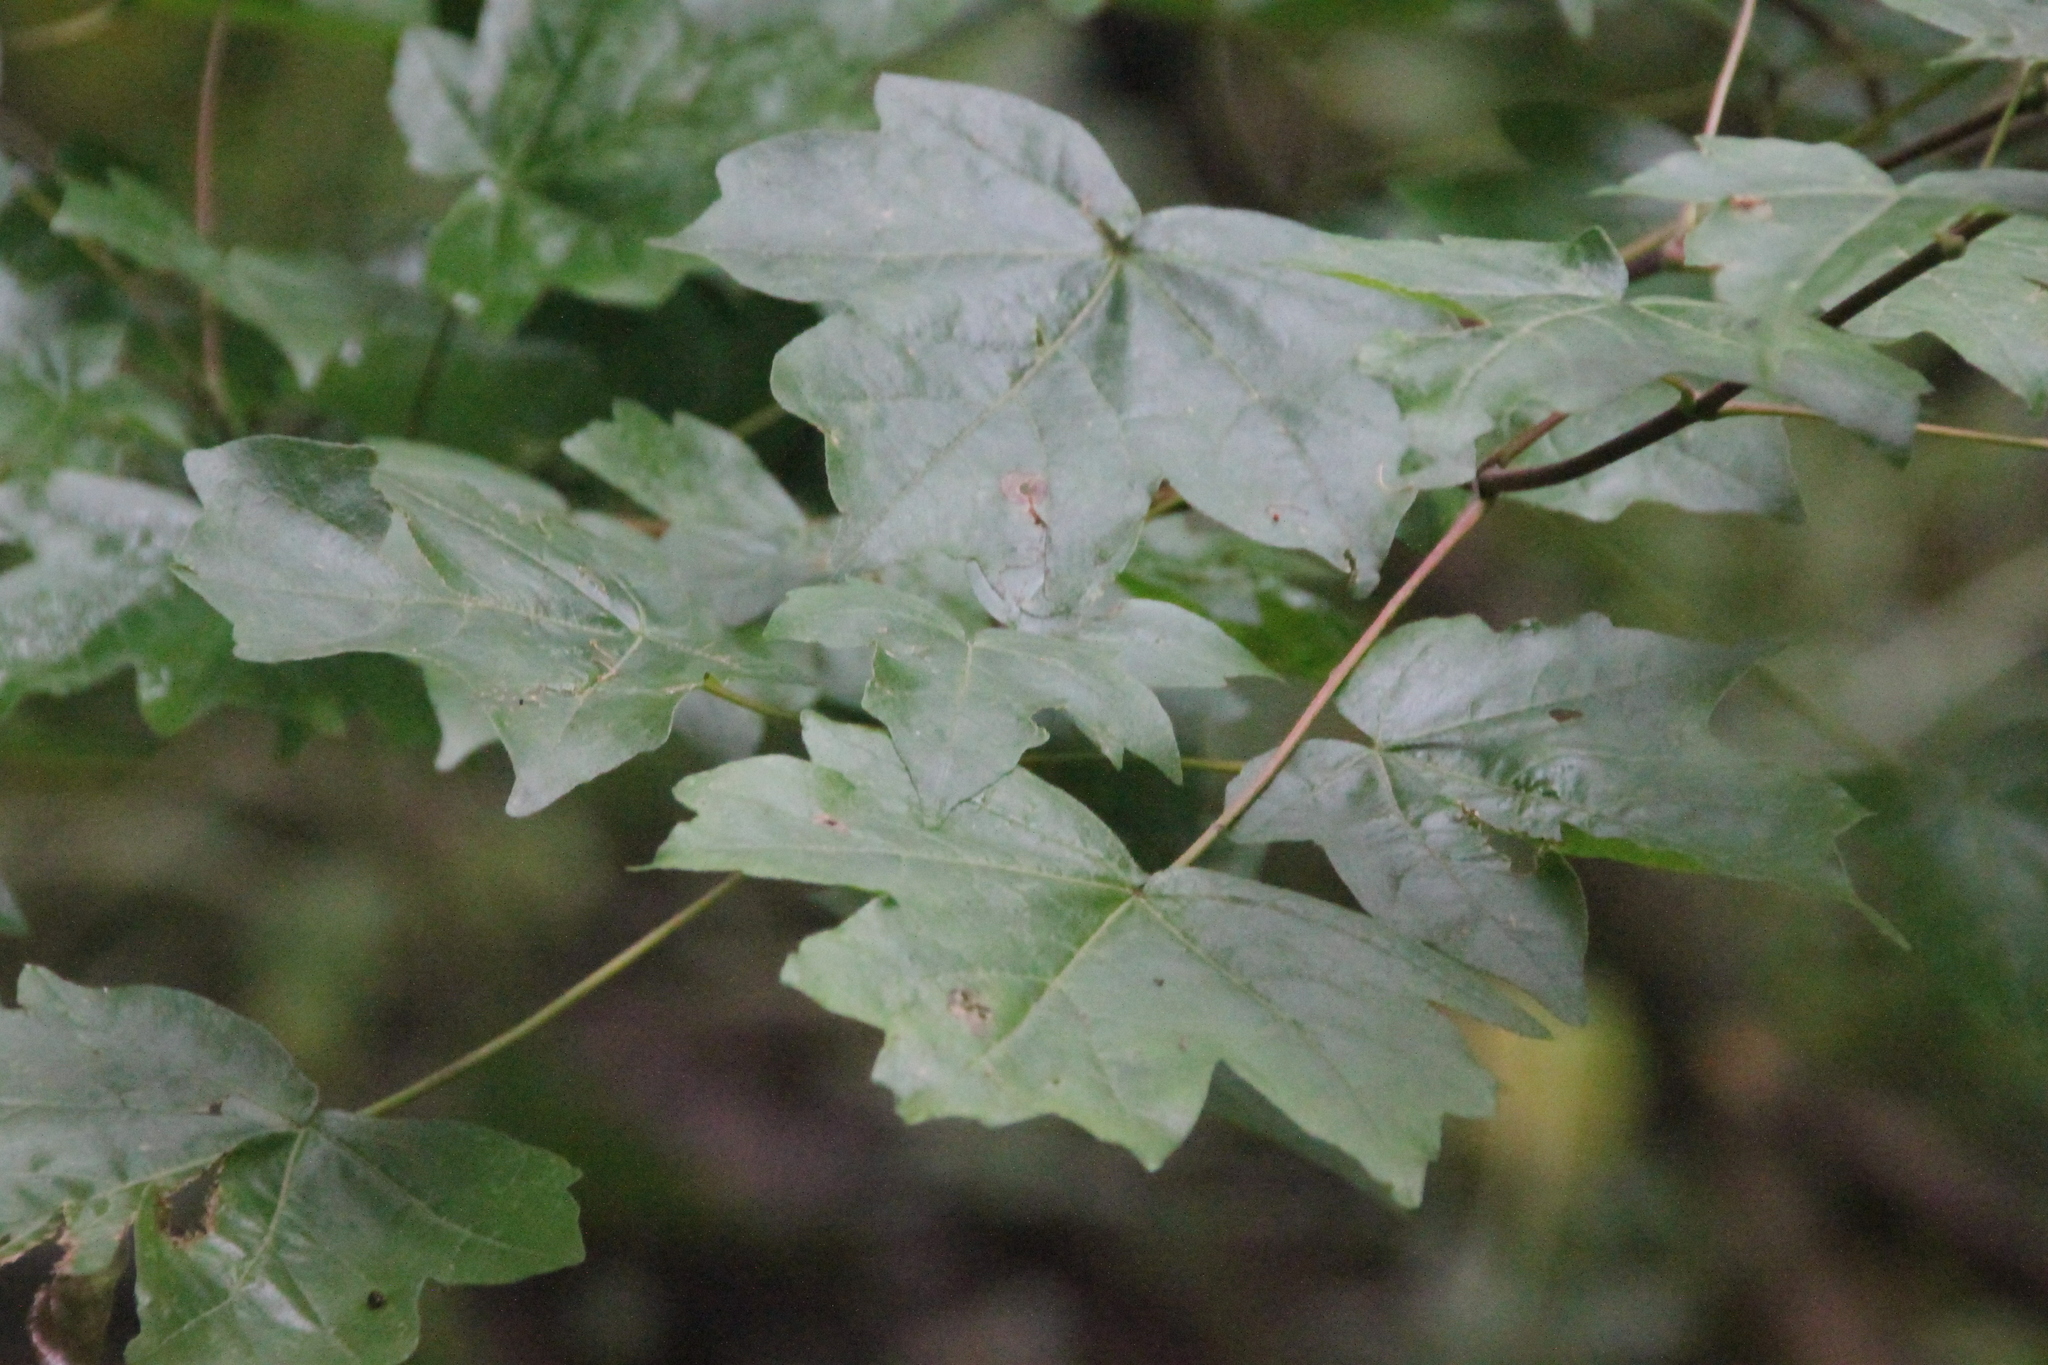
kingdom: Plantae
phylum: Tracheophyta
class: Magnoliopsida
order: Sapindales
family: Sapindaceae
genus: Acer
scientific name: Acer campestre
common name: Field maple
